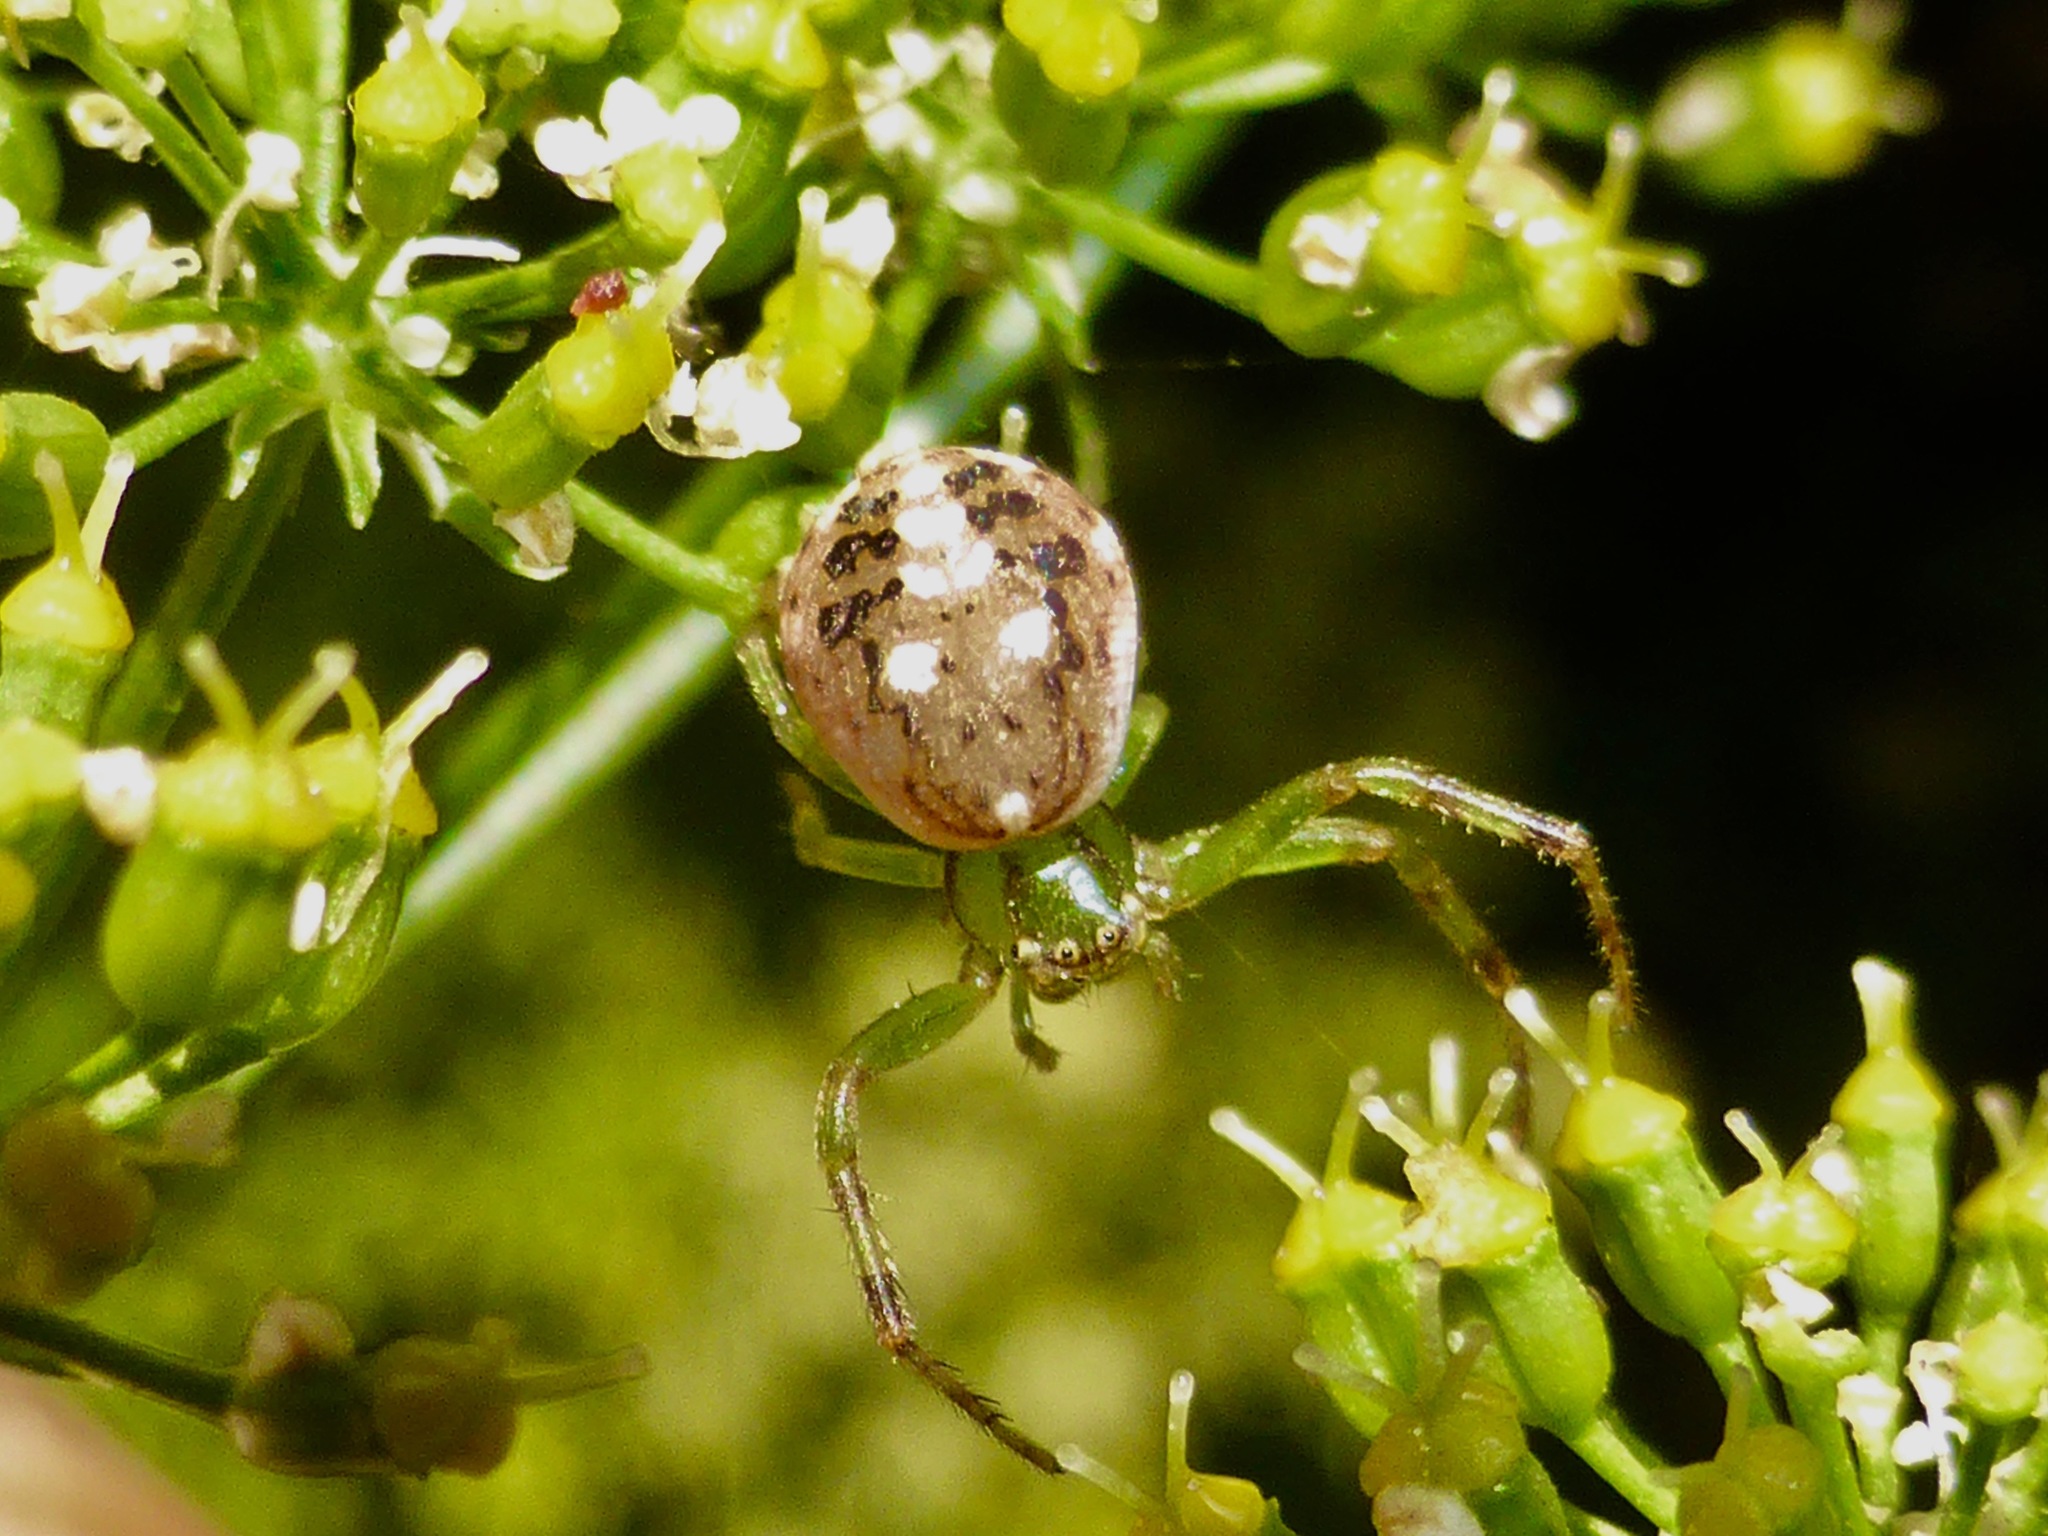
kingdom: Animalia
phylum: Arthropoda
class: Arachnida
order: Araneae
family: Thomisidae
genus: Diaea
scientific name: Diaea ambara
